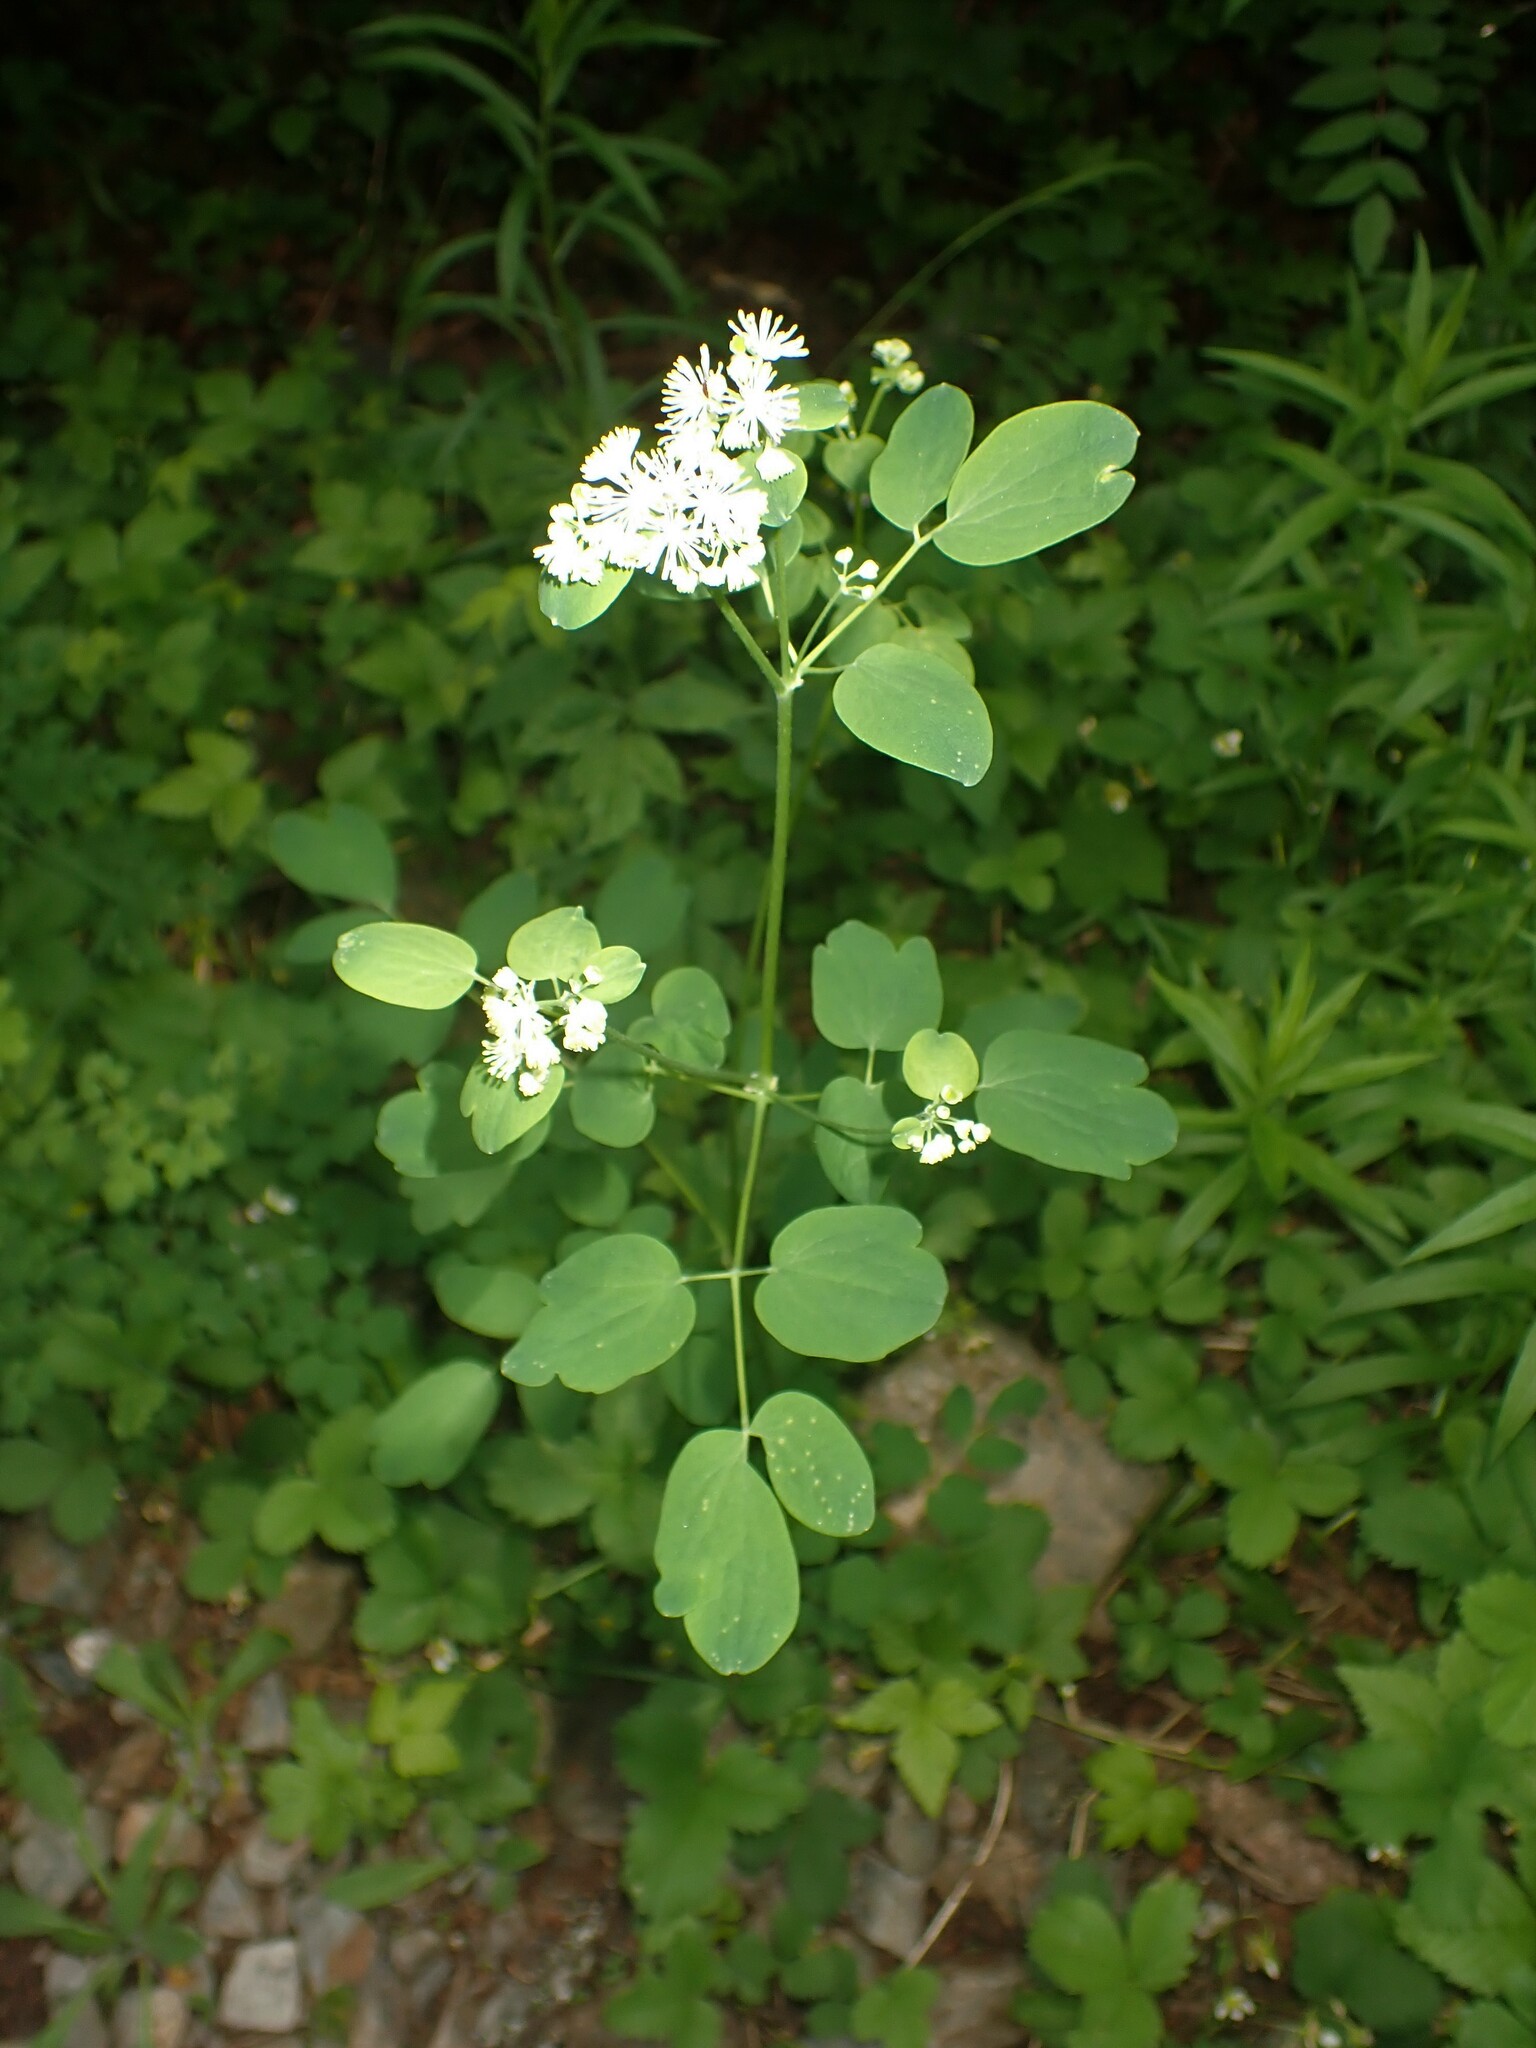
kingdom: Plantae
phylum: Tracheophyta
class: Magnoliopsida
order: Ranunculales
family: Ranunculaceae
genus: Thalictrum
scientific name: Thalictrum pubescens
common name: King-of-the-meadow
